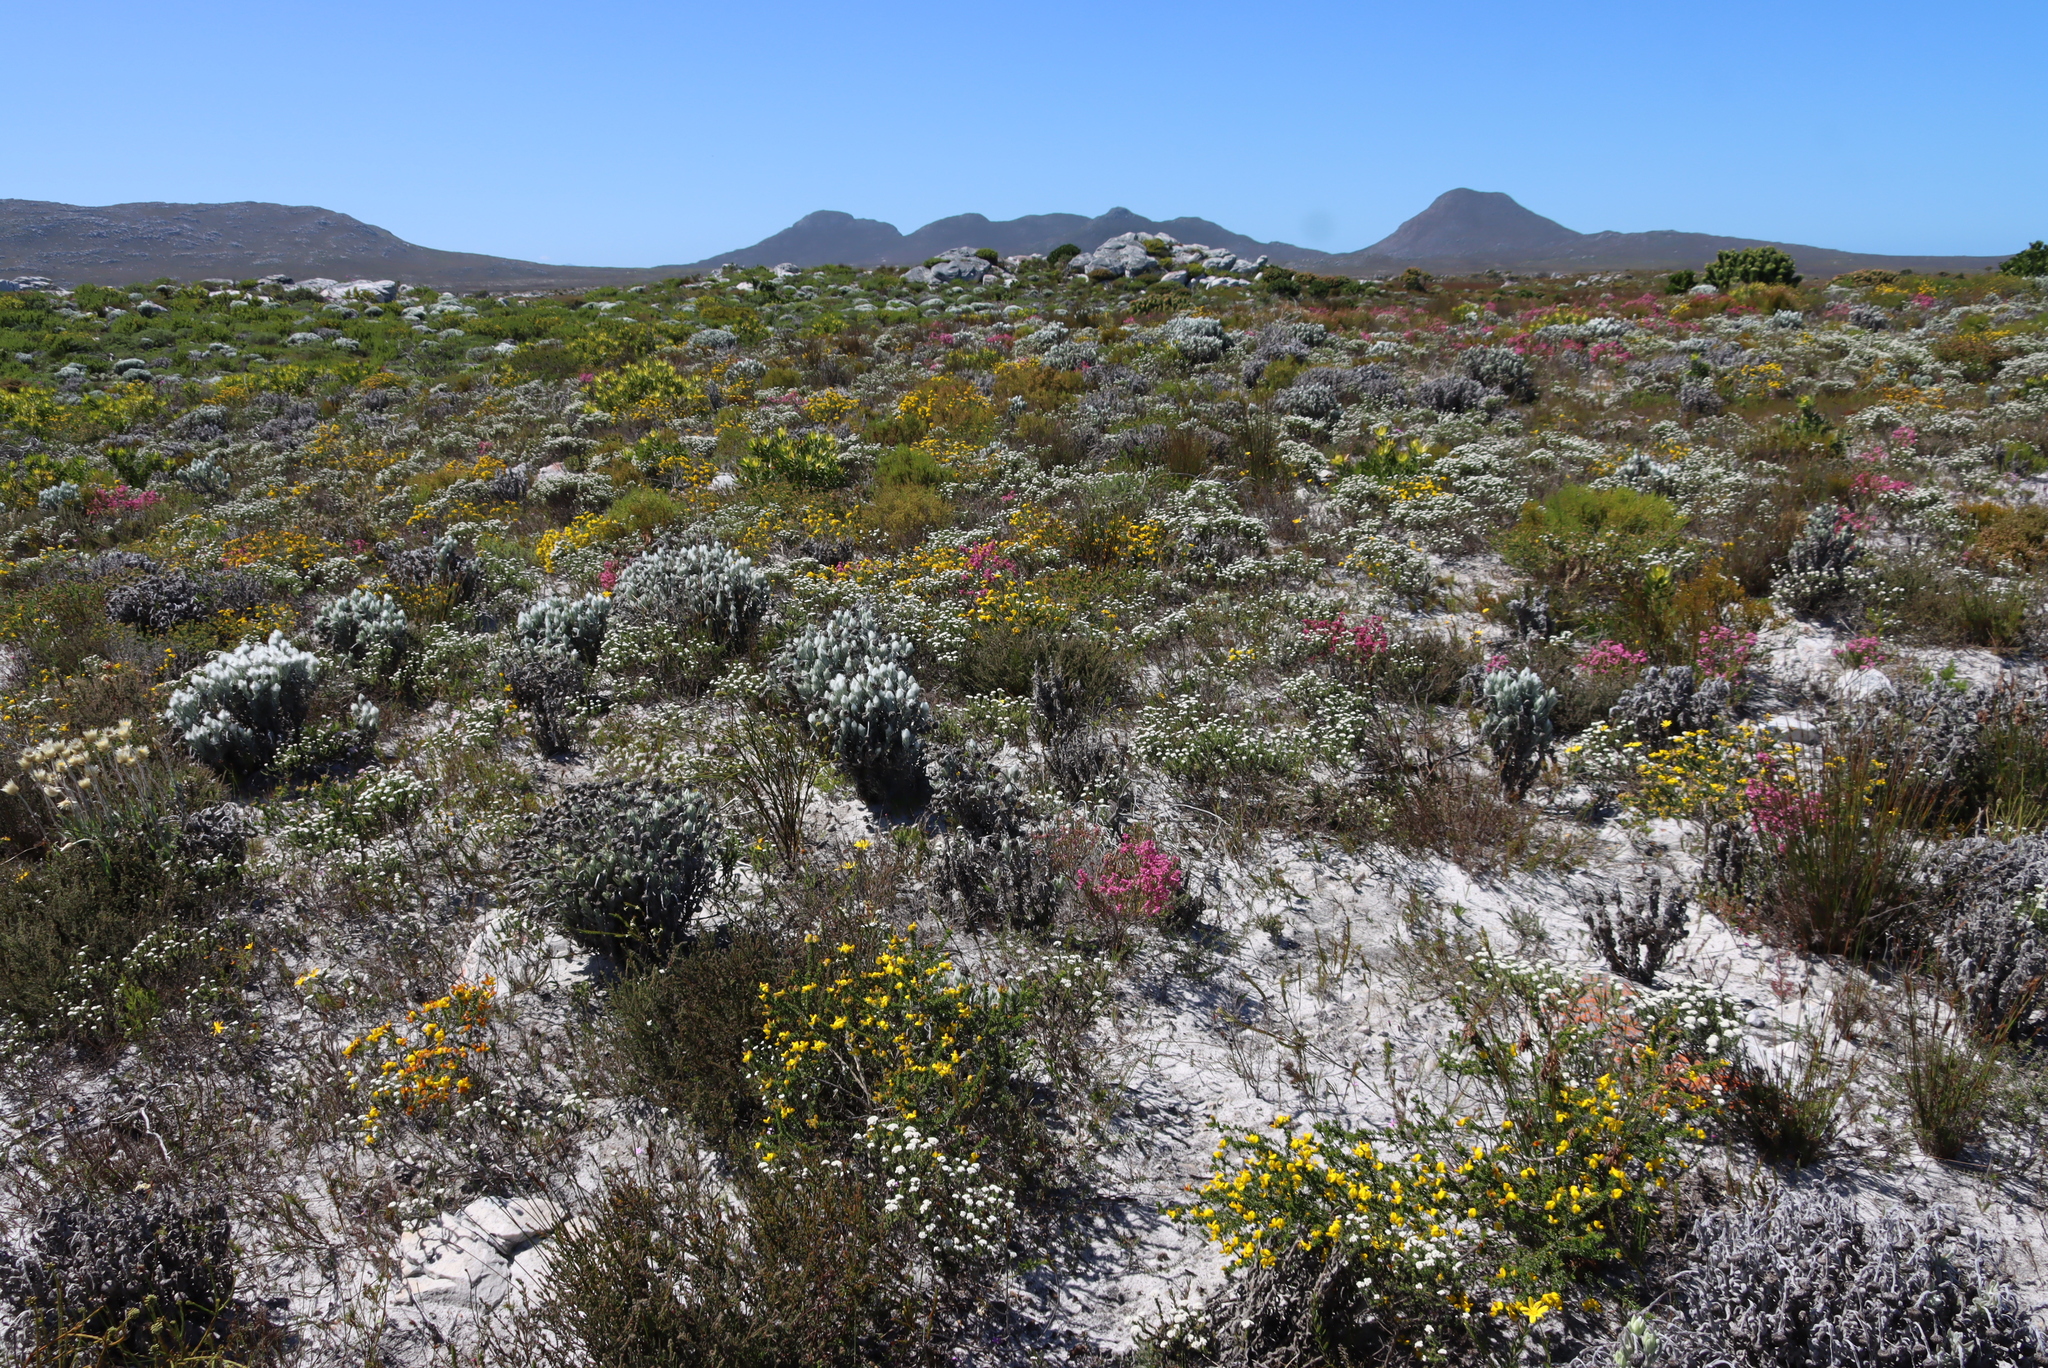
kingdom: Plantae
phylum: Tracheophyta
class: Magnoliopsida
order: Fabales
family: Fabaceae
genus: Aspalathus
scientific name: Aspalathus carnosa
